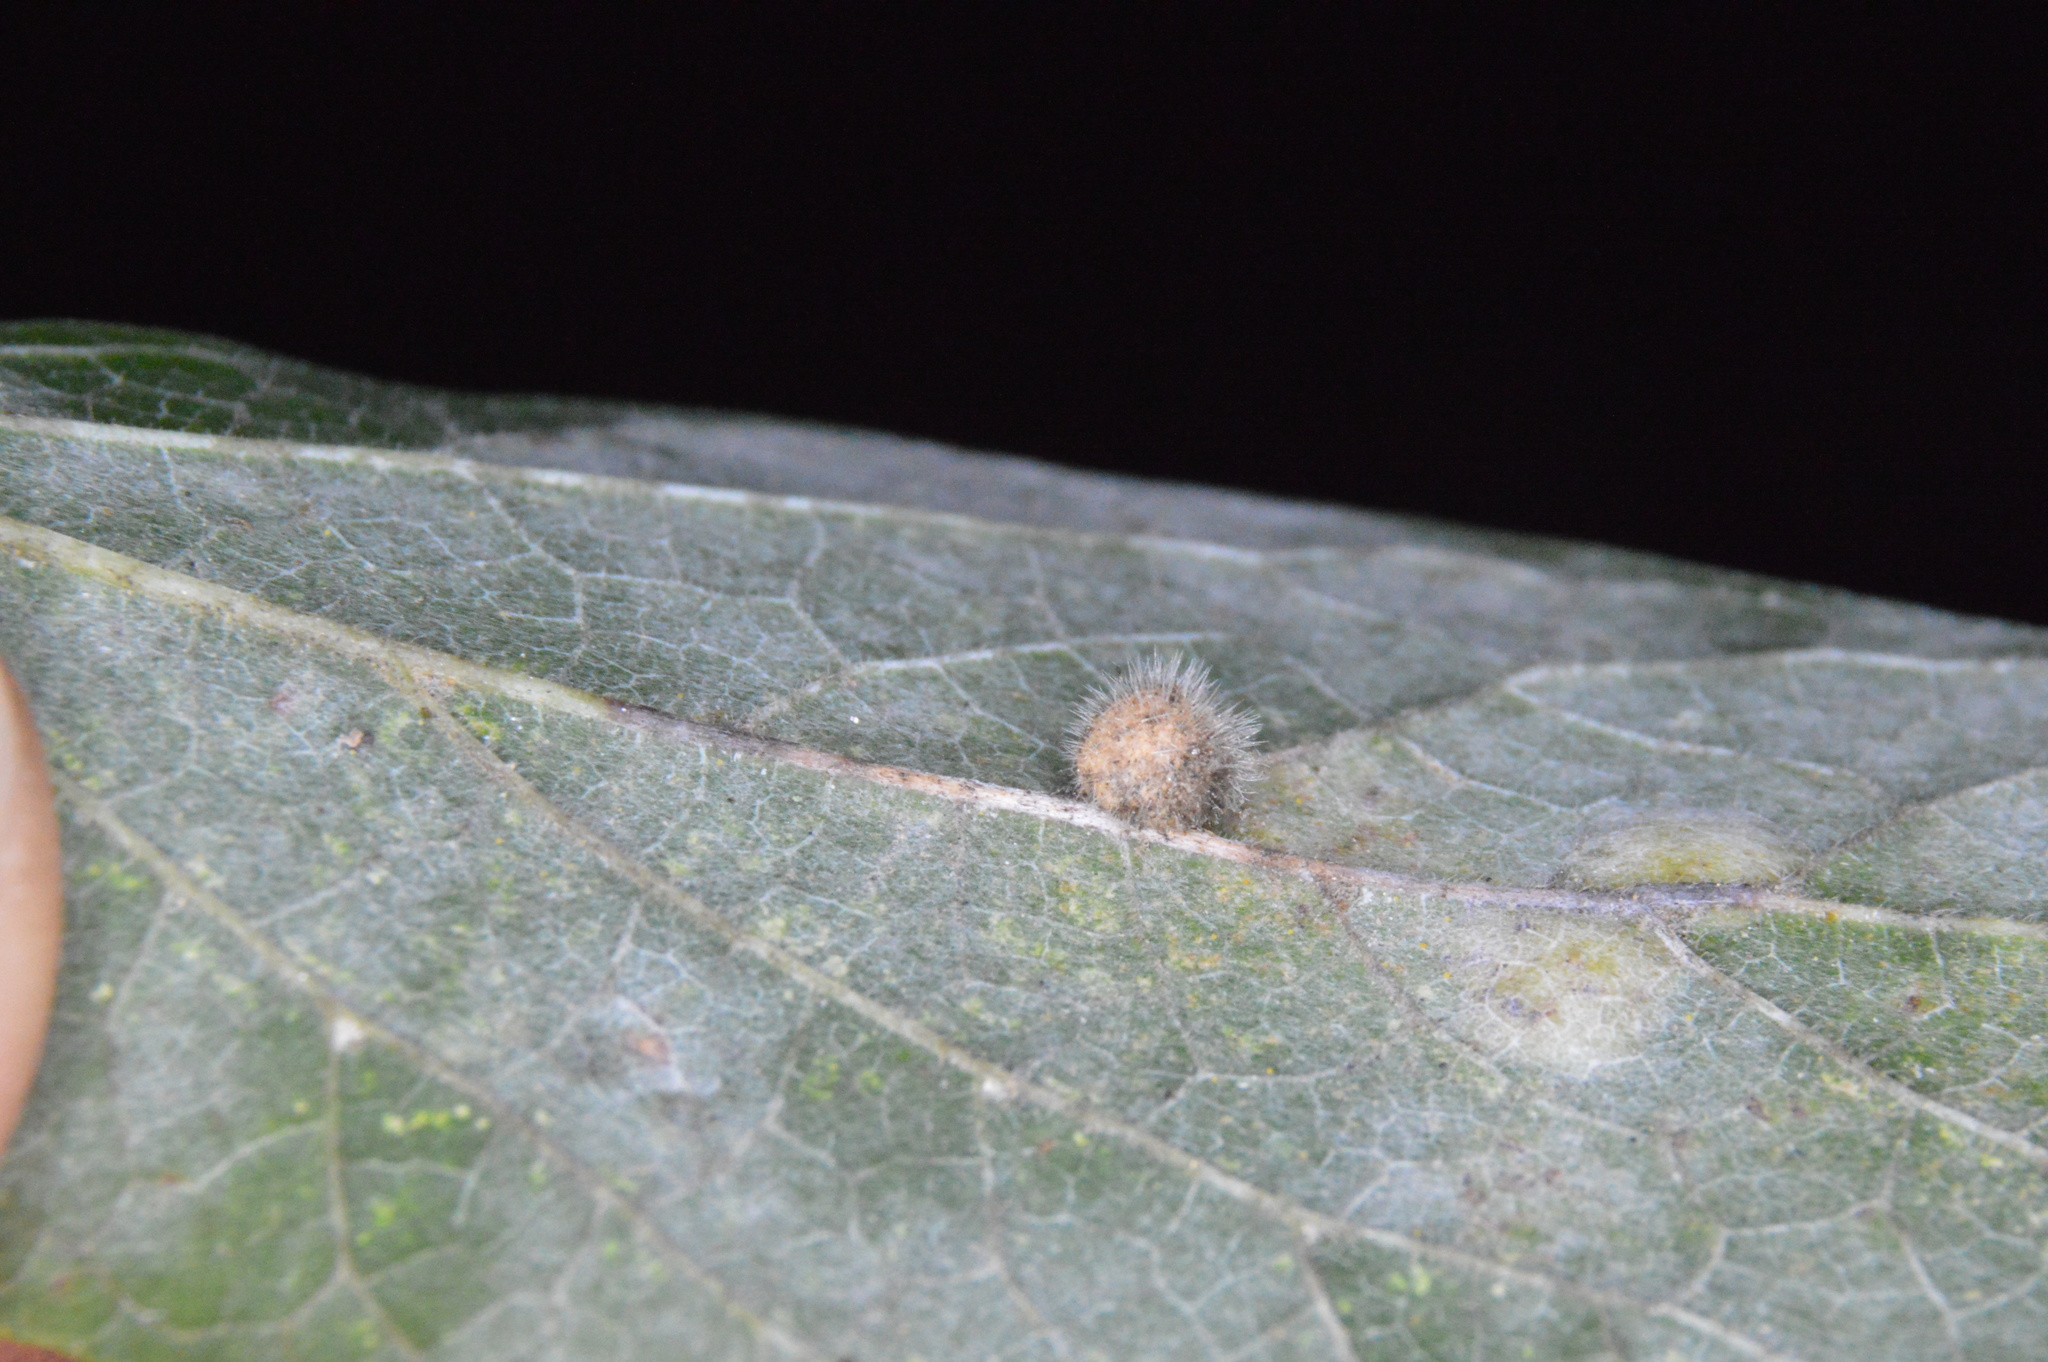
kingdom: Animalia
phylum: Arthropoda
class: Insecta
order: Diptera
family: Cecidomyiidae
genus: Celticecis
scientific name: Celticecis pubescens
